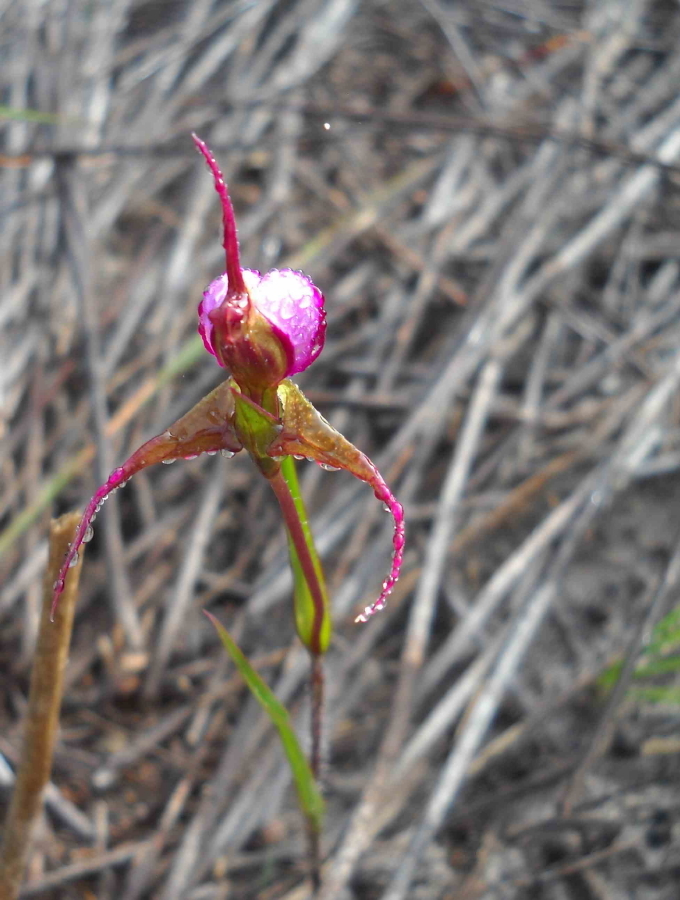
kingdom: Plantae
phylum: Tracheophyta
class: Liliopsida
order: Asparagales
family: Orchidaceae
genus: Disperis
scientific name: Disperis capensis
